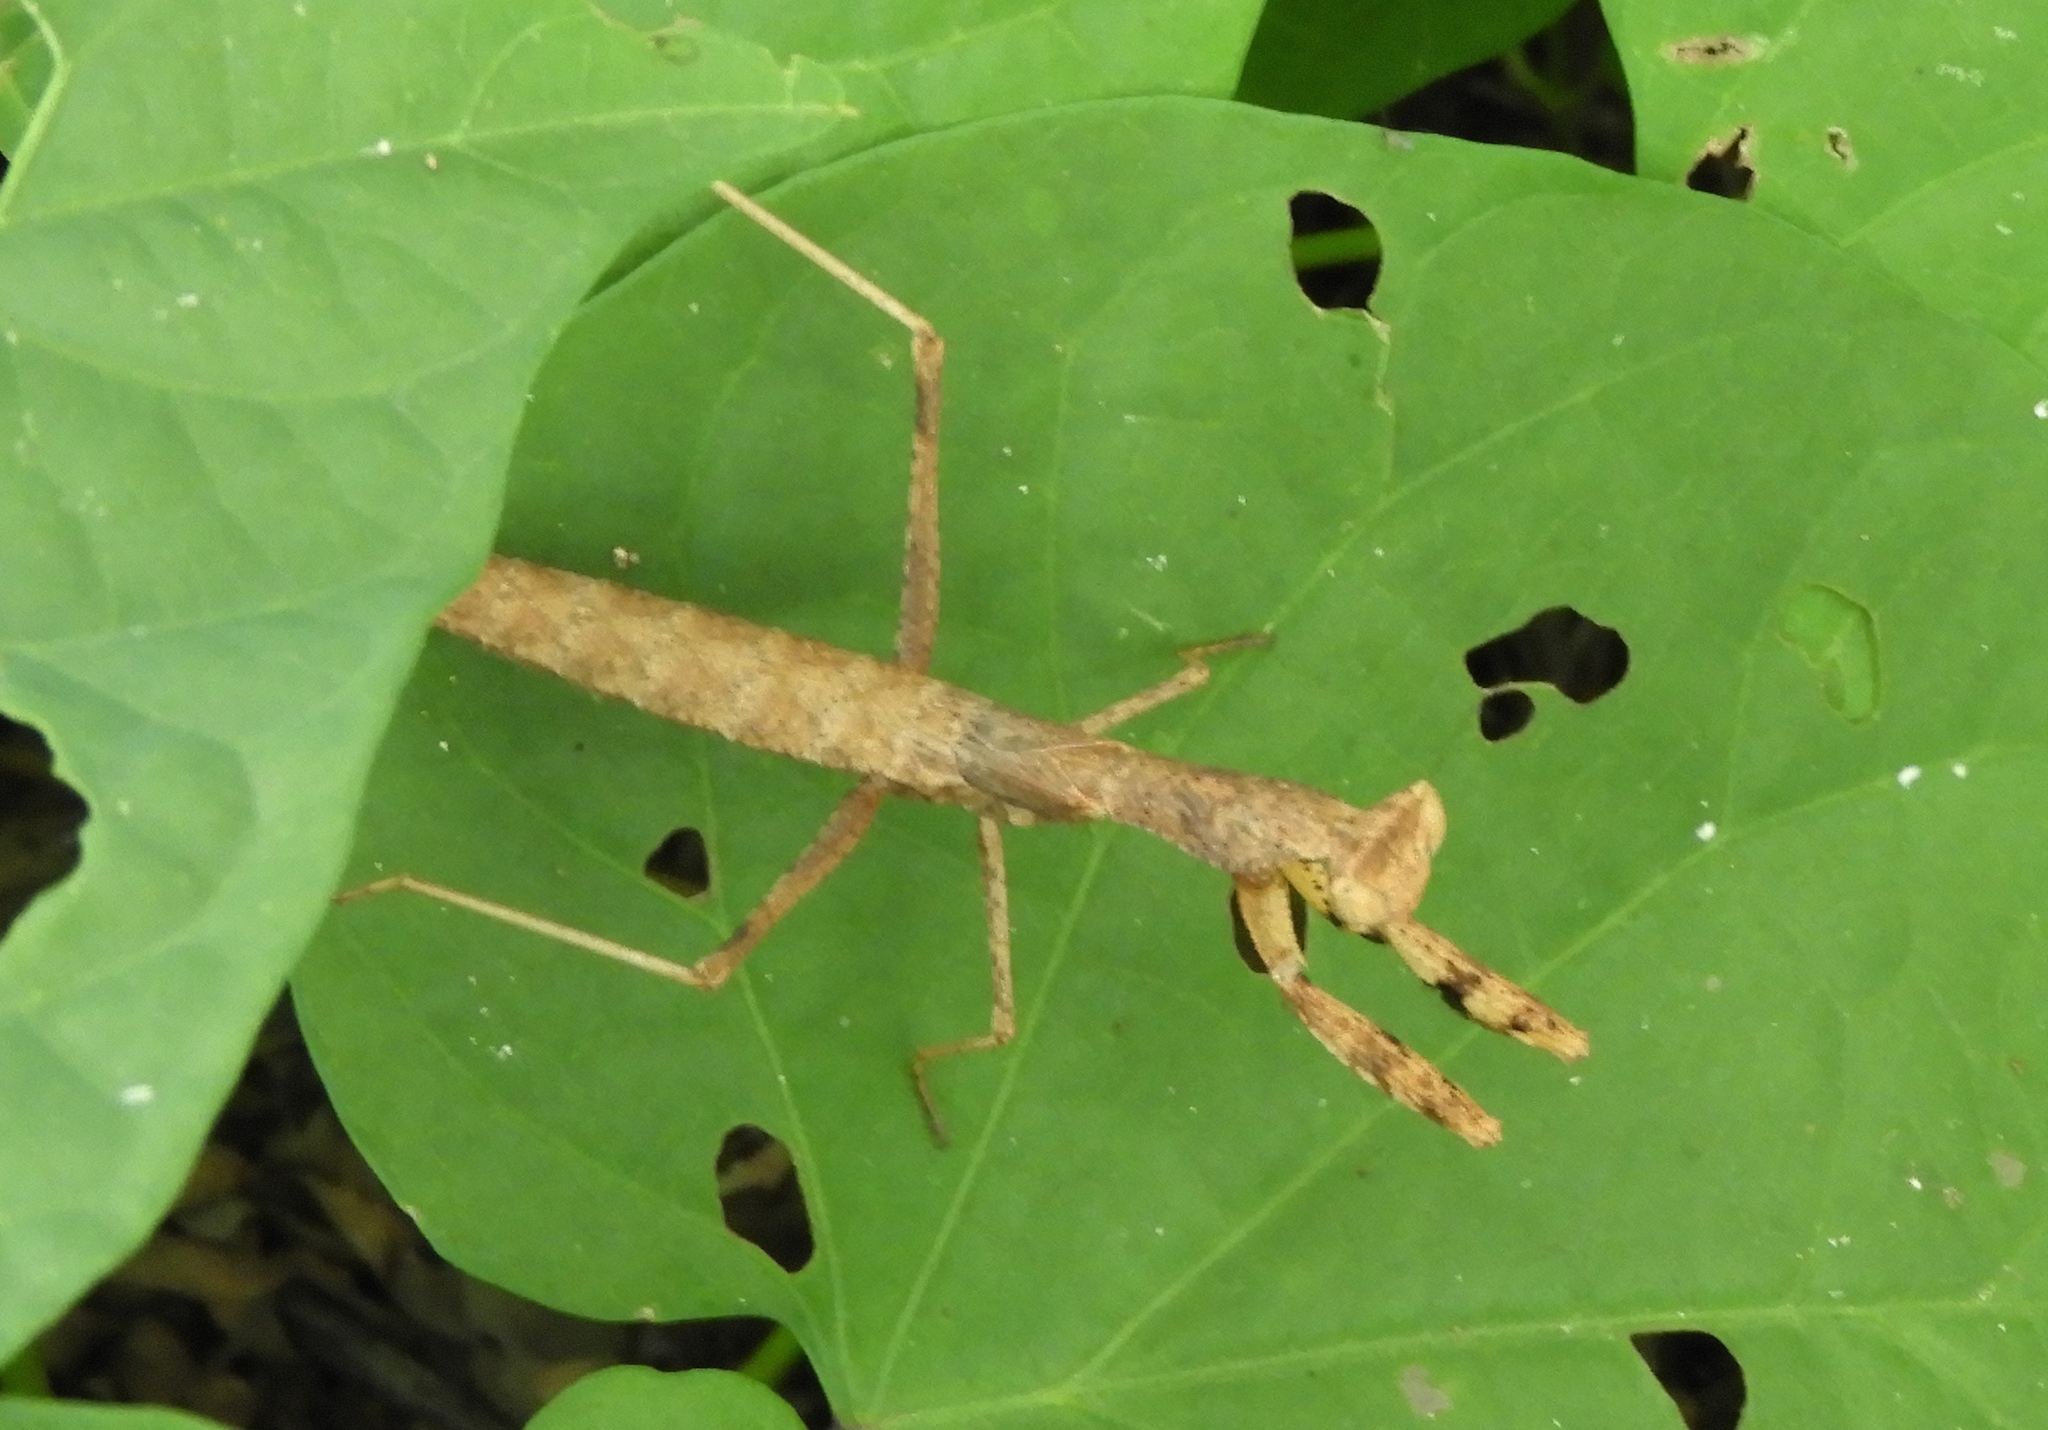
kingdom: Animalia
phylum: Arthropoda
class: Insecta
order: Mantodea
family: Amelidae
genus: Yersinia
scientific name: Yersinia mexicana
